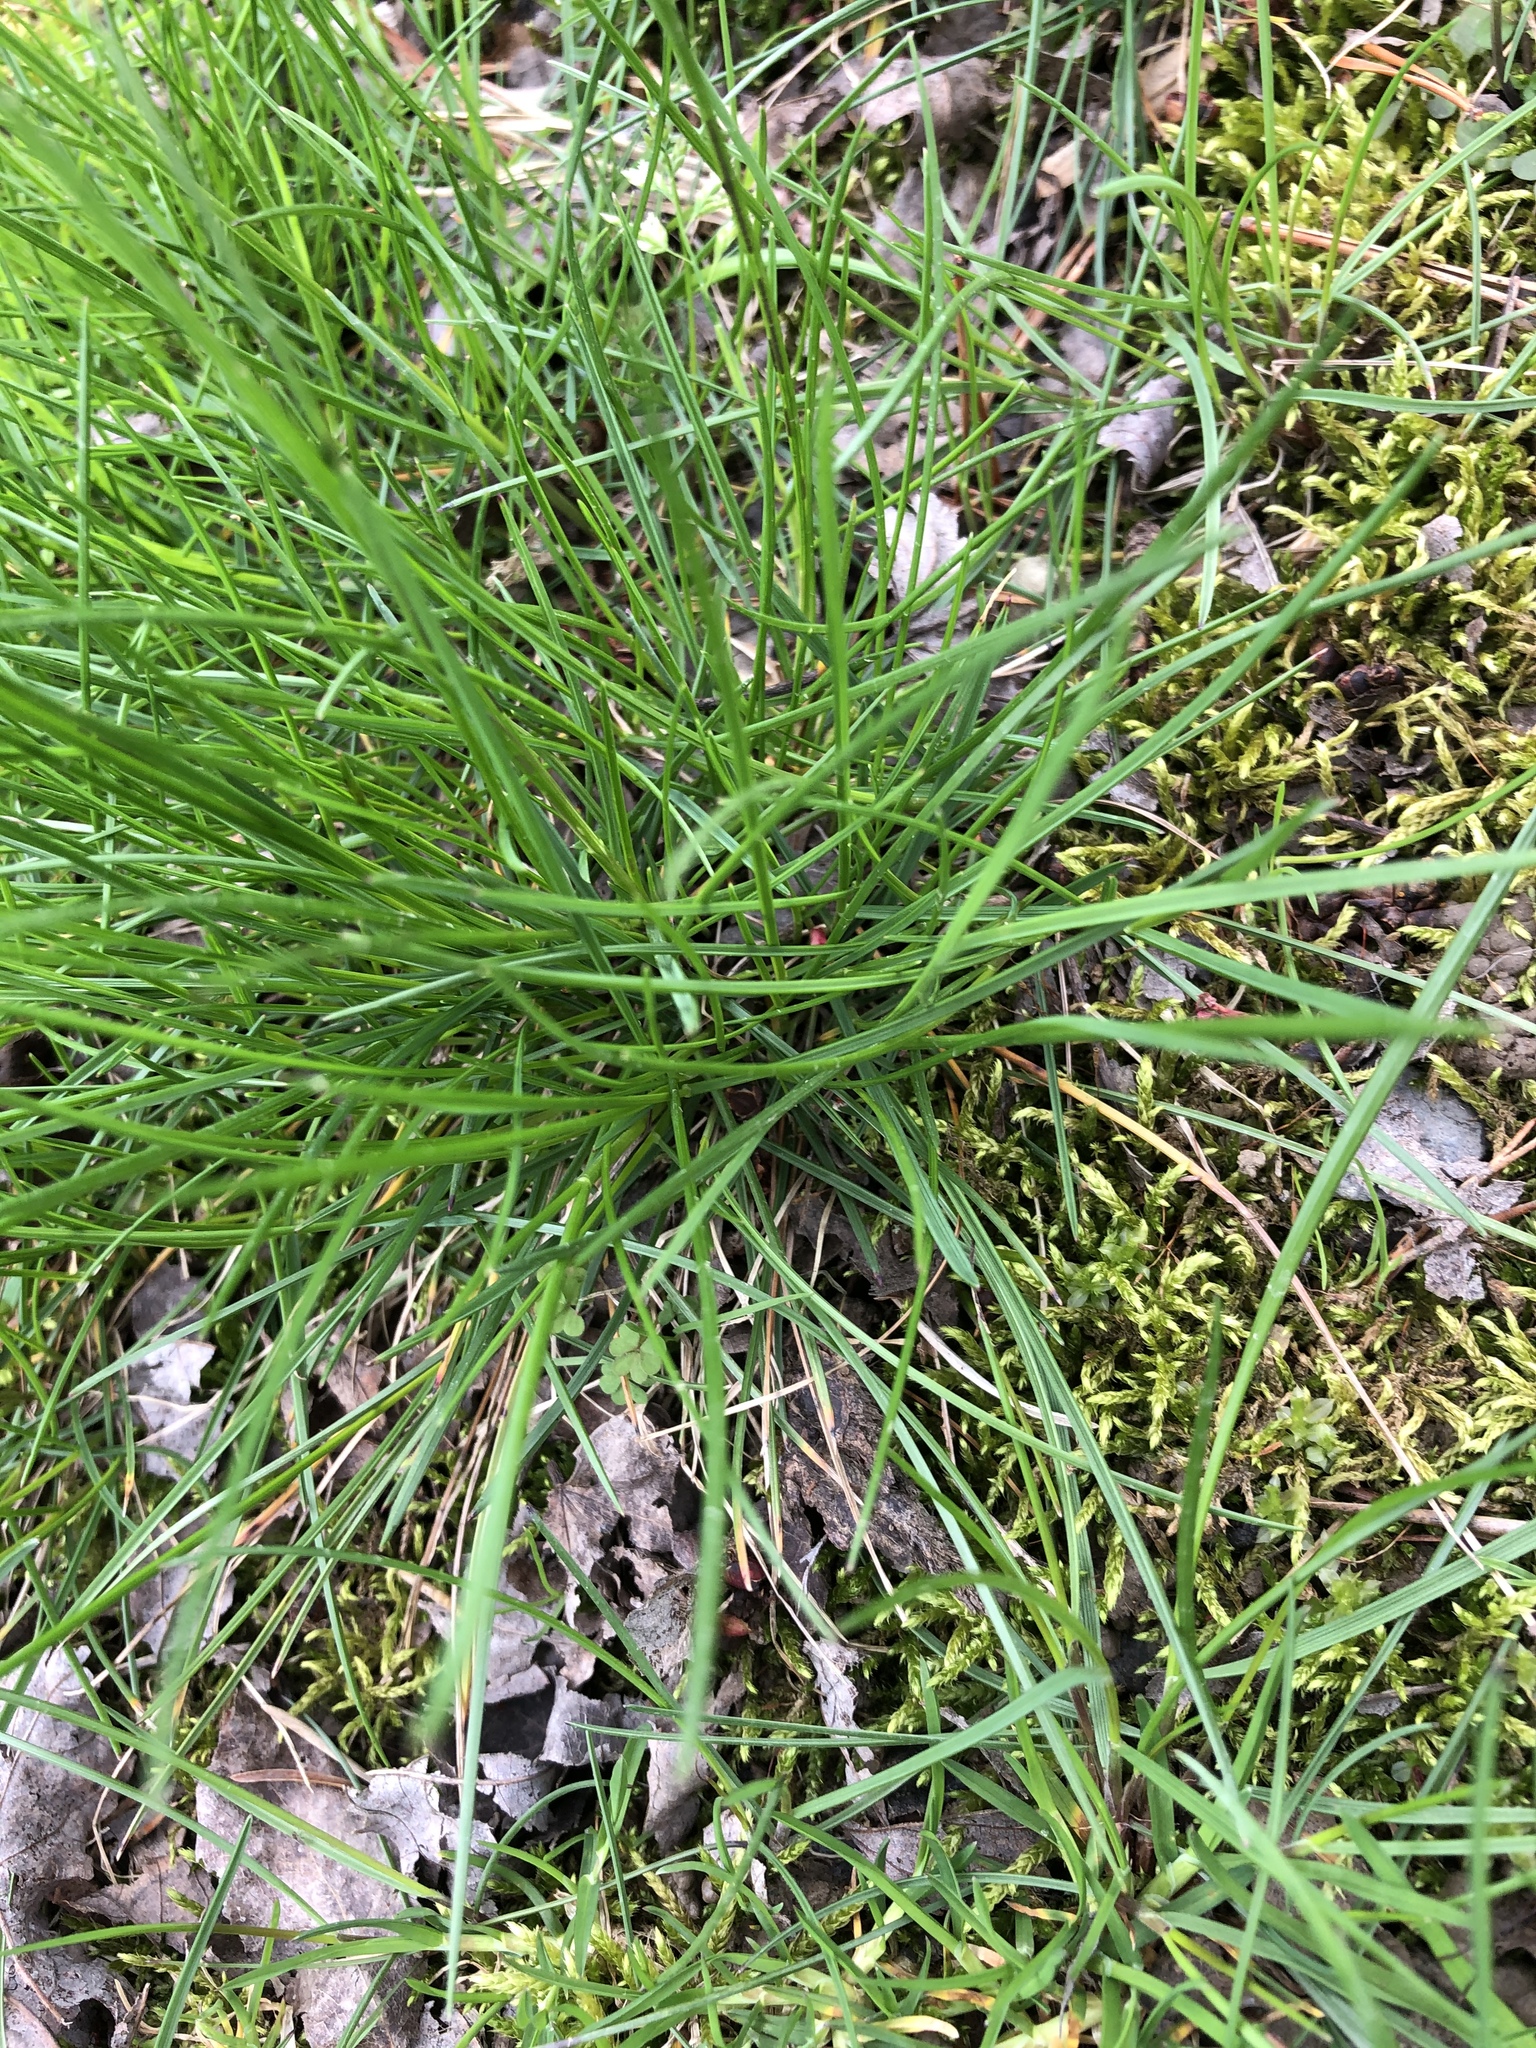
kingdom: Plantae
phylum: Tracheophyta
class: Liliopsida
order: Asparagales
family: Amaryllidaceae
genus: Allium
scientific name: Allium vineale
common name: Crow garlic
